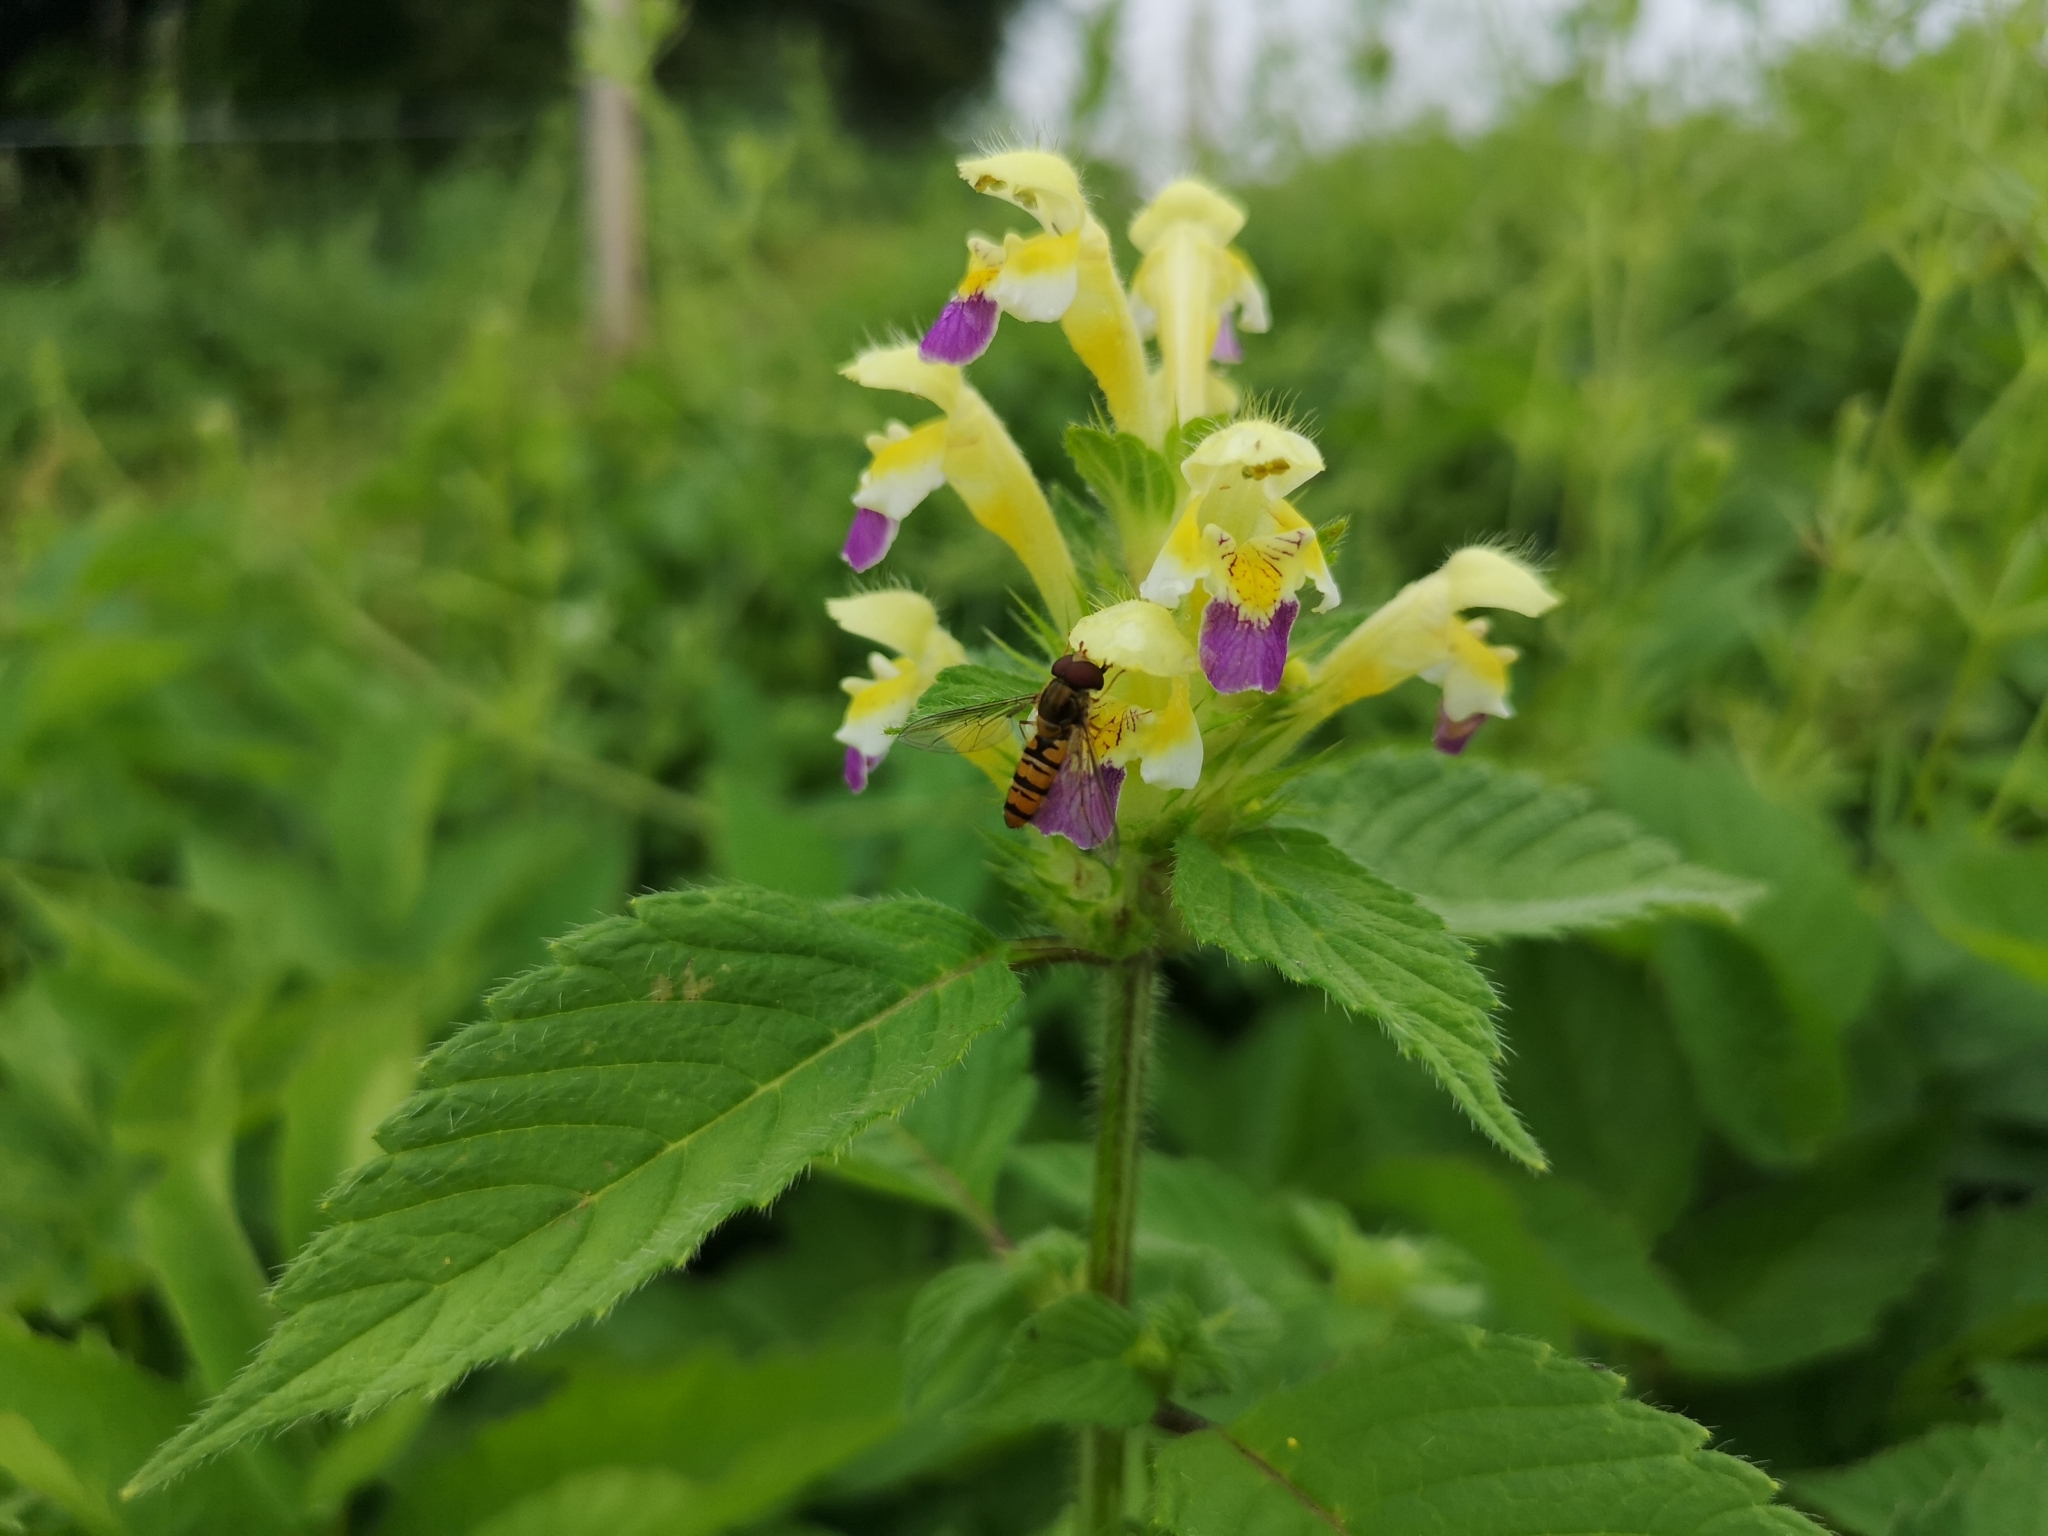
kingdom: Plantae
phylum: Tracheophyta
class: Magnoliopsida
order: Lamiales
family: Lamiaceae
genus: Galeopsis
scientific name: Galeopsis speciosa
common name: Large-flowered hemp-nettle
